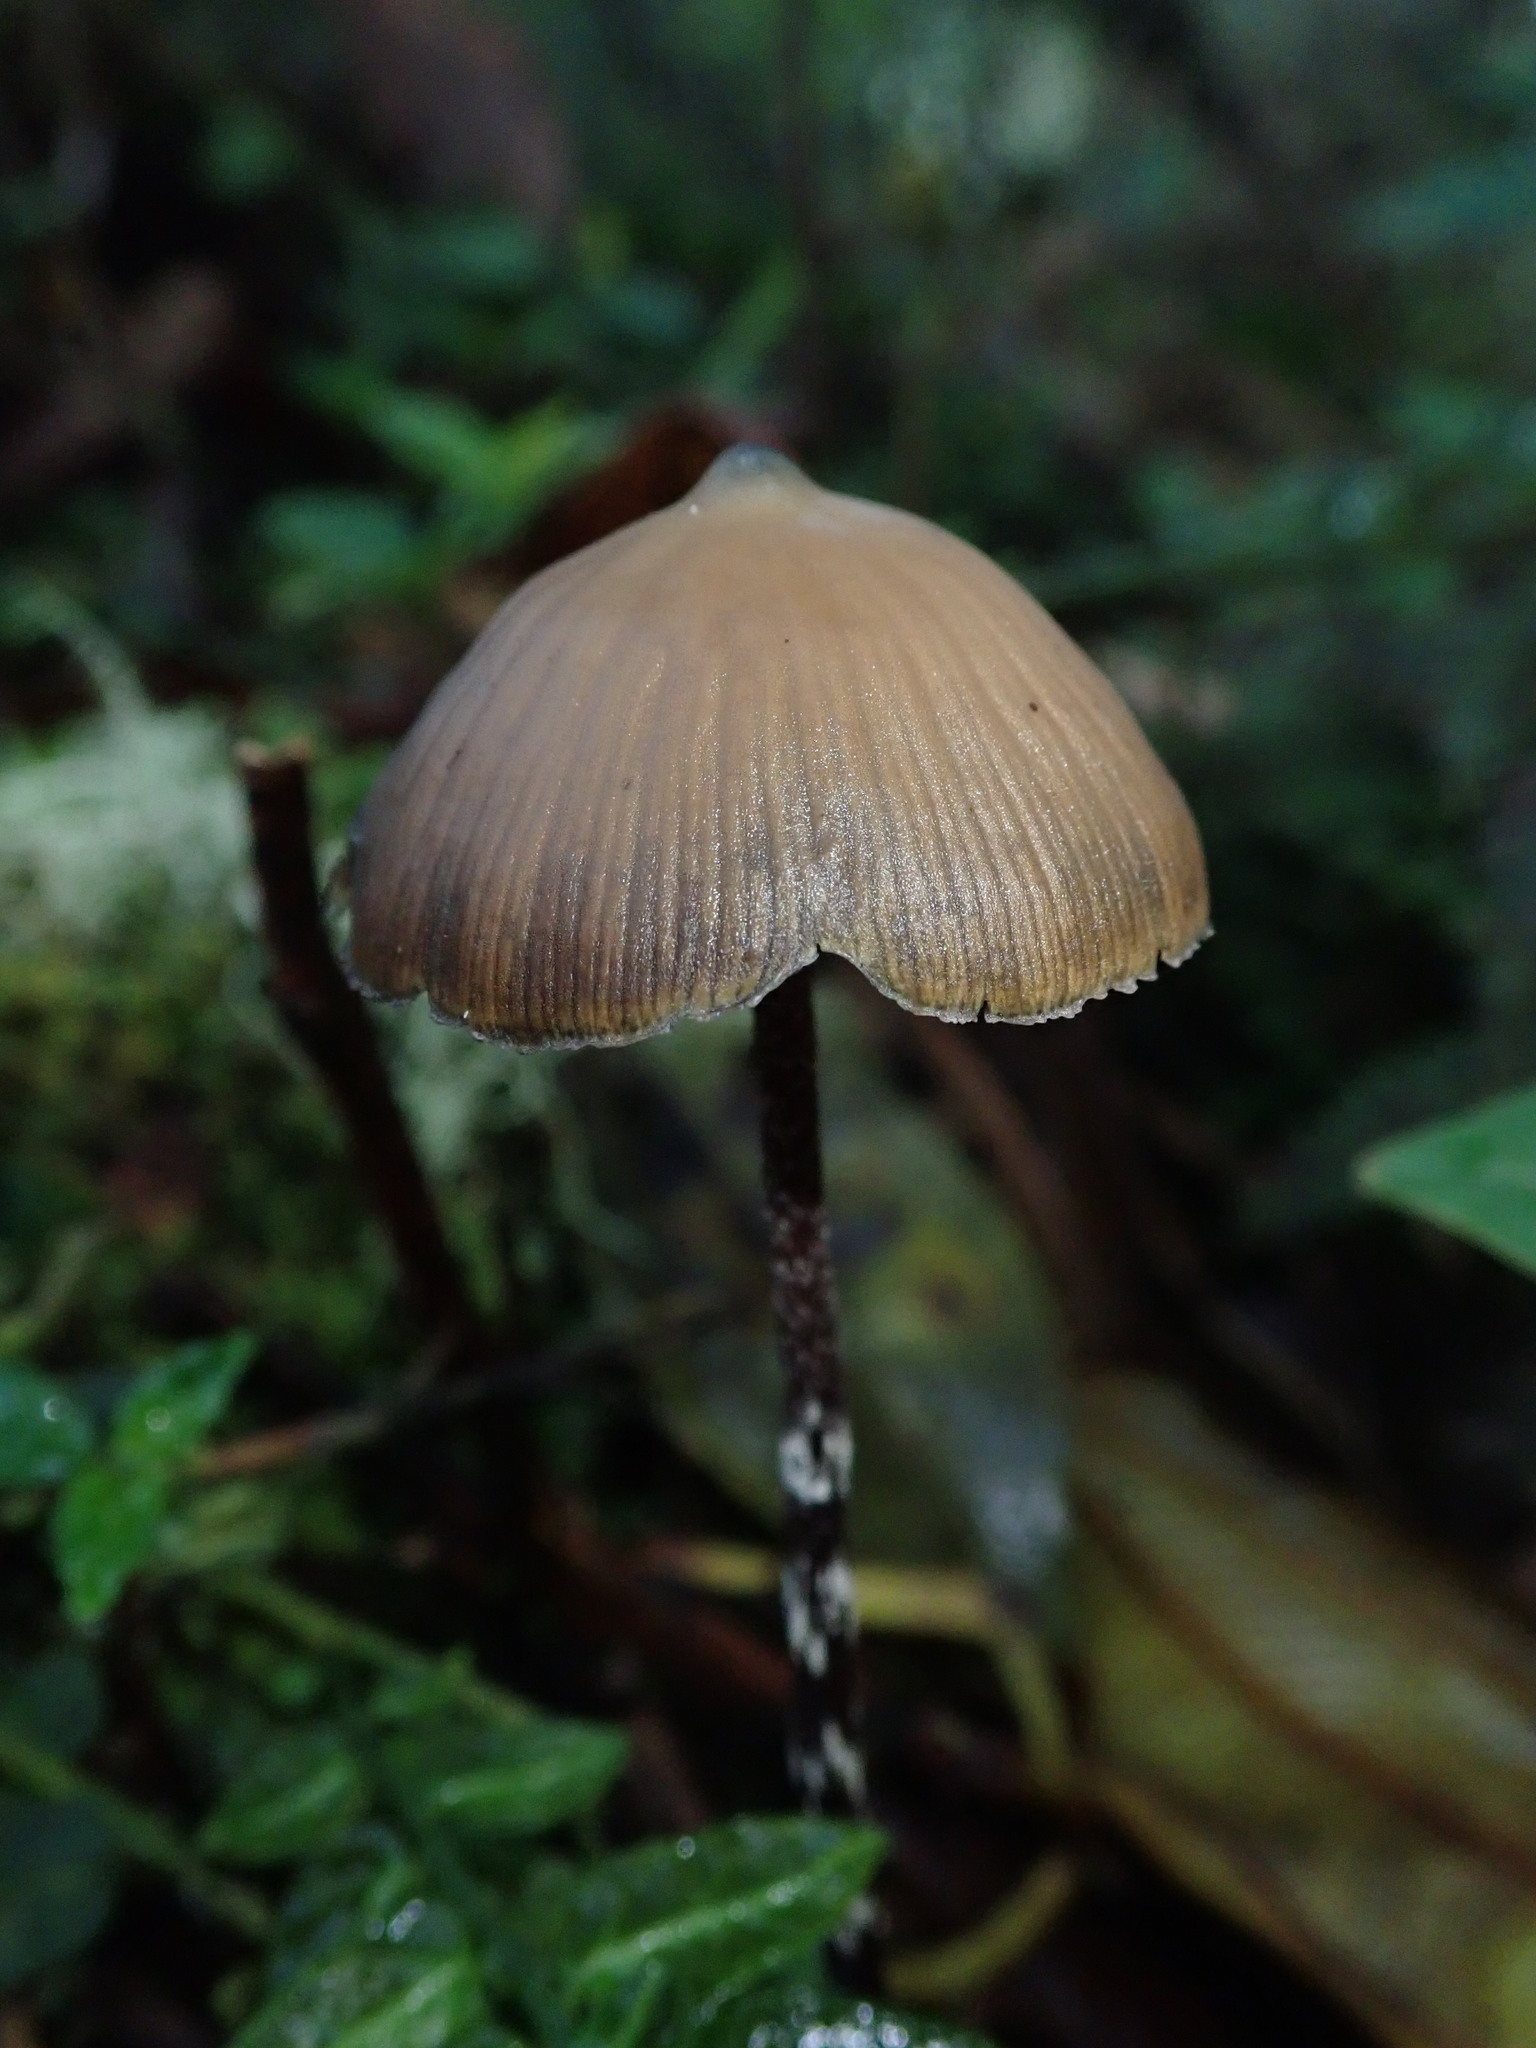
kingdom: Fungi
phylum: Basidiomycota
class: Agaricomycetes
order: Agaricales
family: Hymenogastraceae
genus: Psilocybe
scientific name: Psilocybe zapotecorum
